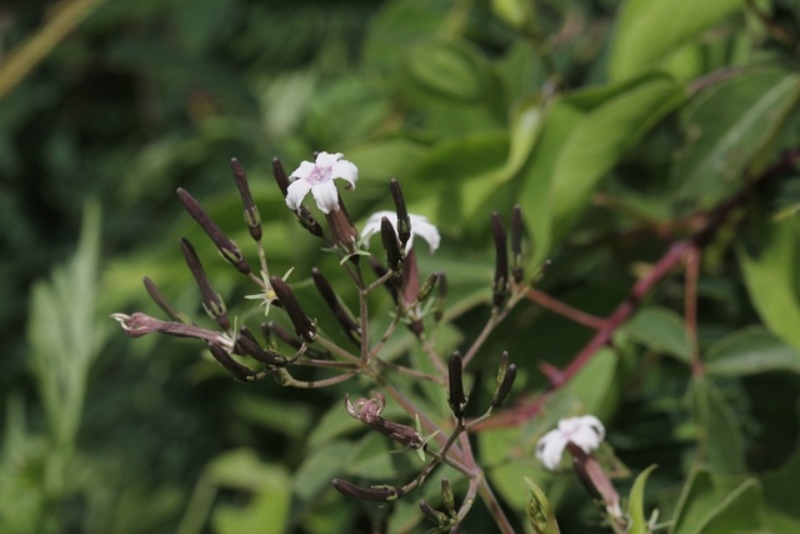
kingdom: Plantae
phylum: Tracheophyta
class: Magnoliopsida
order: Gentianales
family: Rubiaceae
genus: Paederia
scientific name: Paederia ciliata
